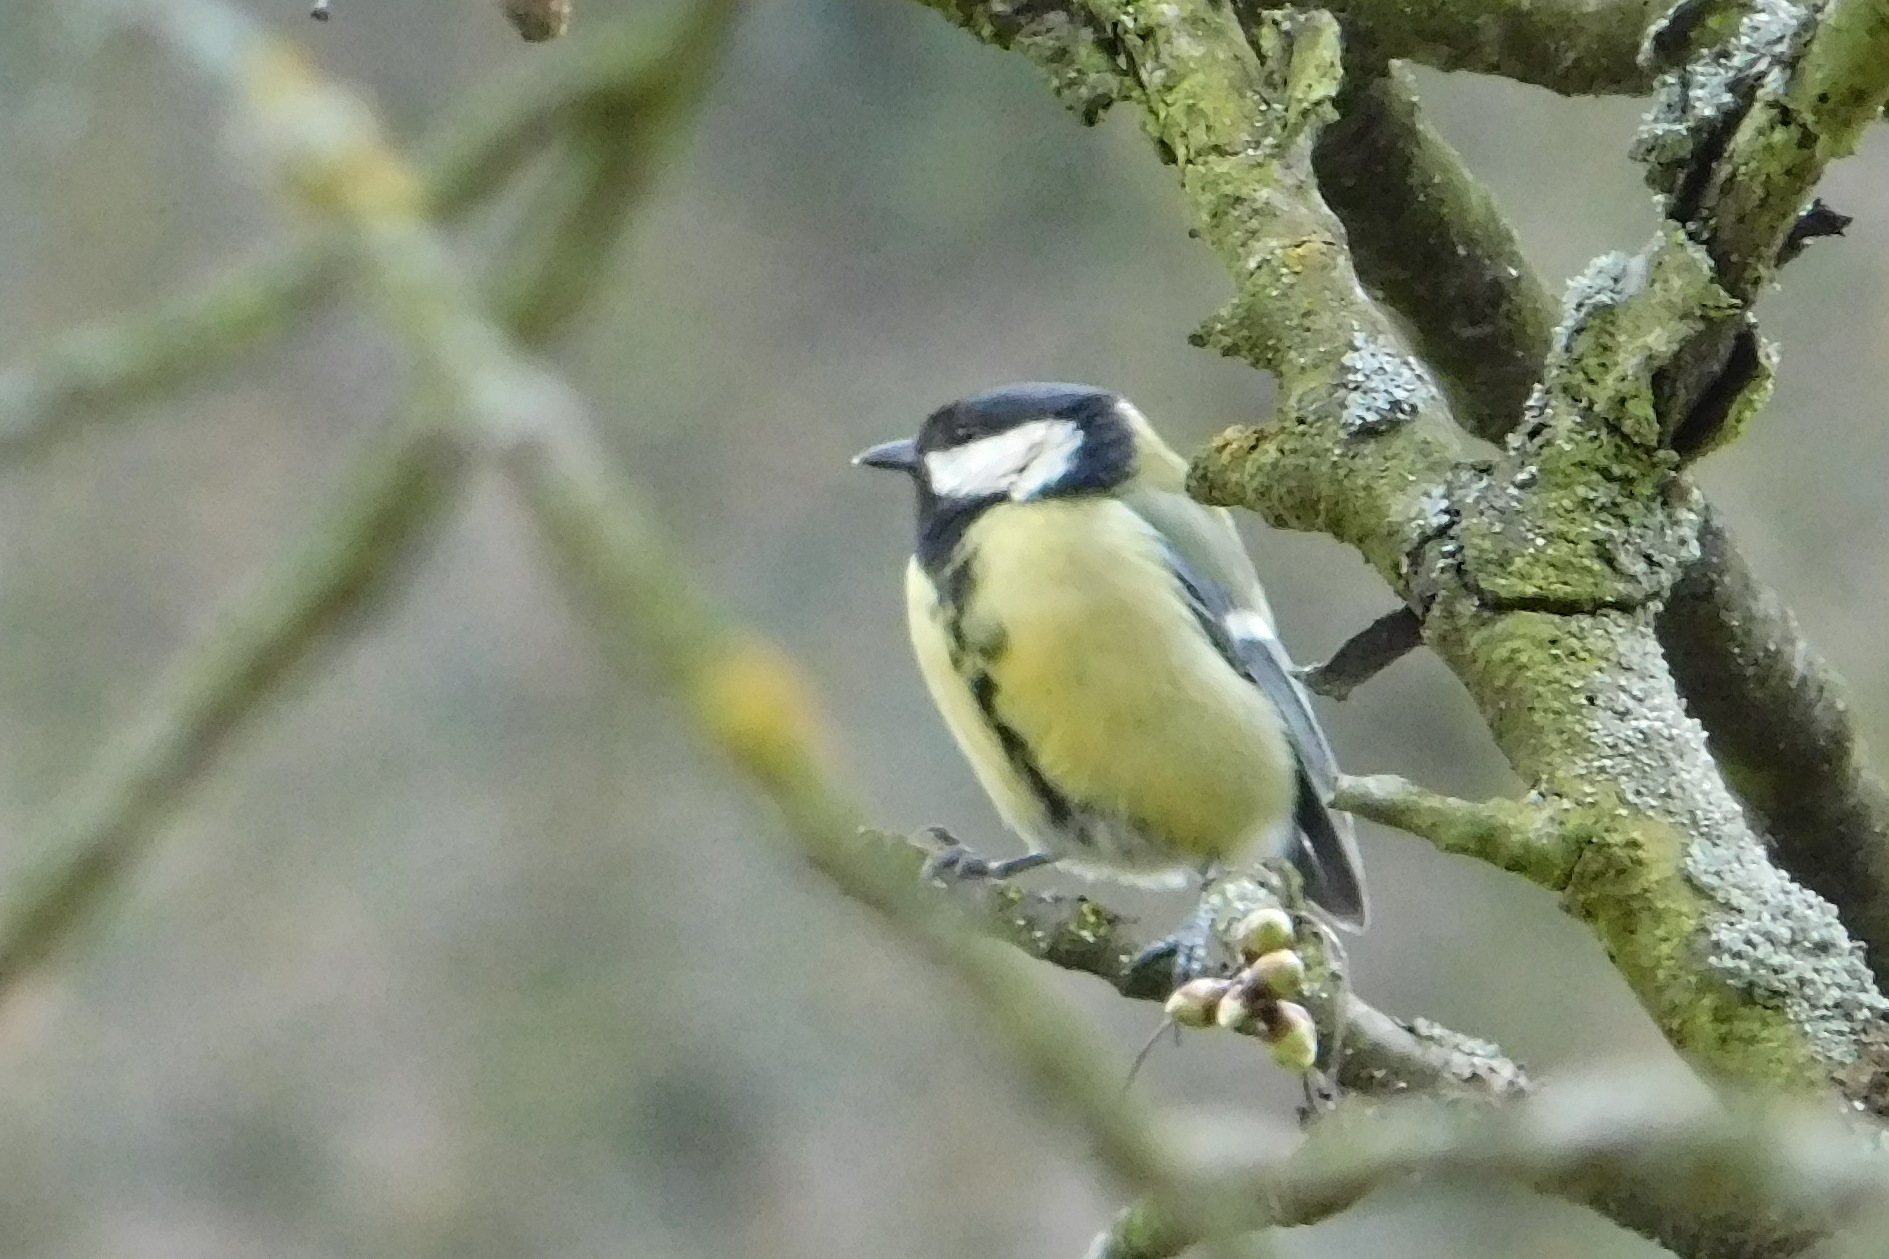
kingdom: Animalia
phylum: Chordata
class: Aves
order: Passeriformes
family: Paridae
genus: Parus
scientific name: Parus major
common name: Great tit
